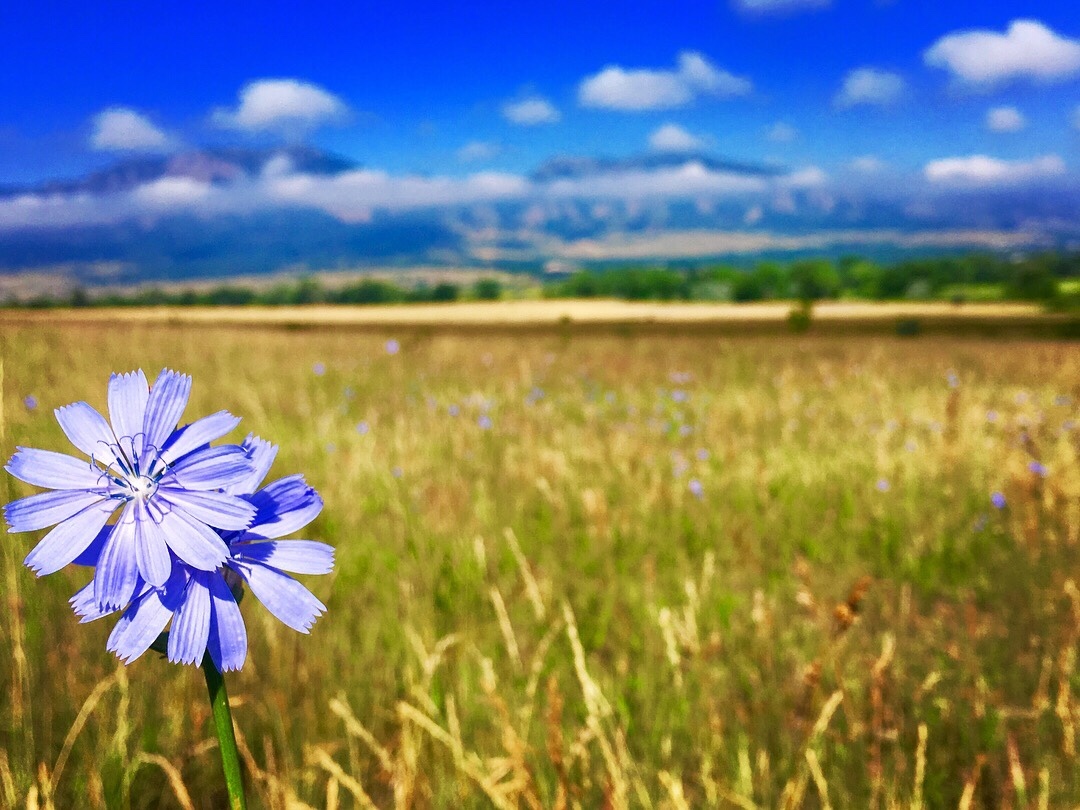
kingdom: Plantae
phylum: Tracheophyta
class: Magnoliopsida
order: Asterales
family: Asteraceae
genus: Cichorium
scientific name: Cichorium intybus
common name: Chicory
